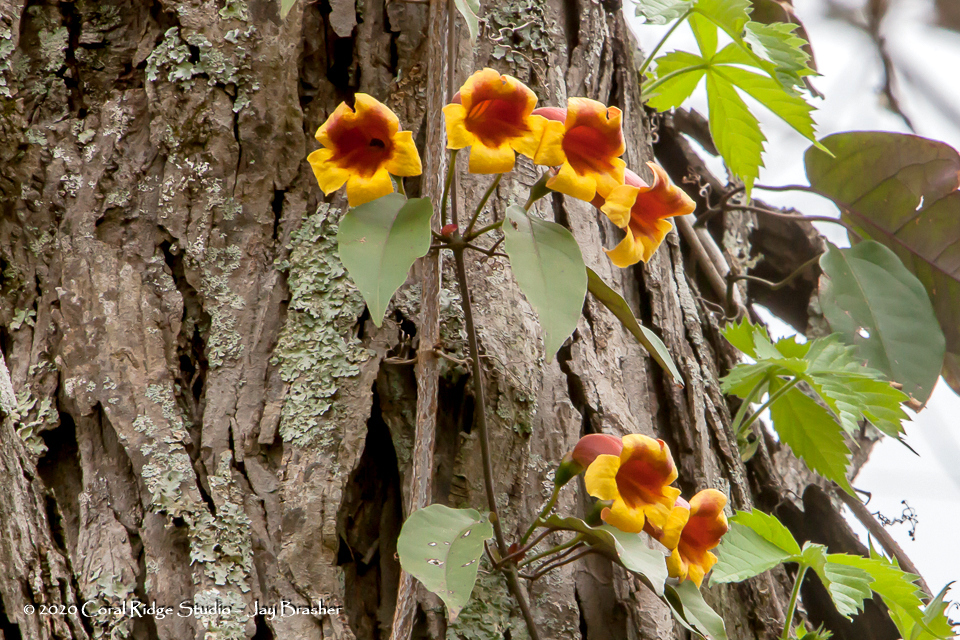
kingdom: Plantae
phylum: Tracheophyta
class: Magnoliopsida
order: Lamiales
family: Bignoniaceae
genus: Bignonia
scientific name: Bignonia capreolata
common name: Crossvine
